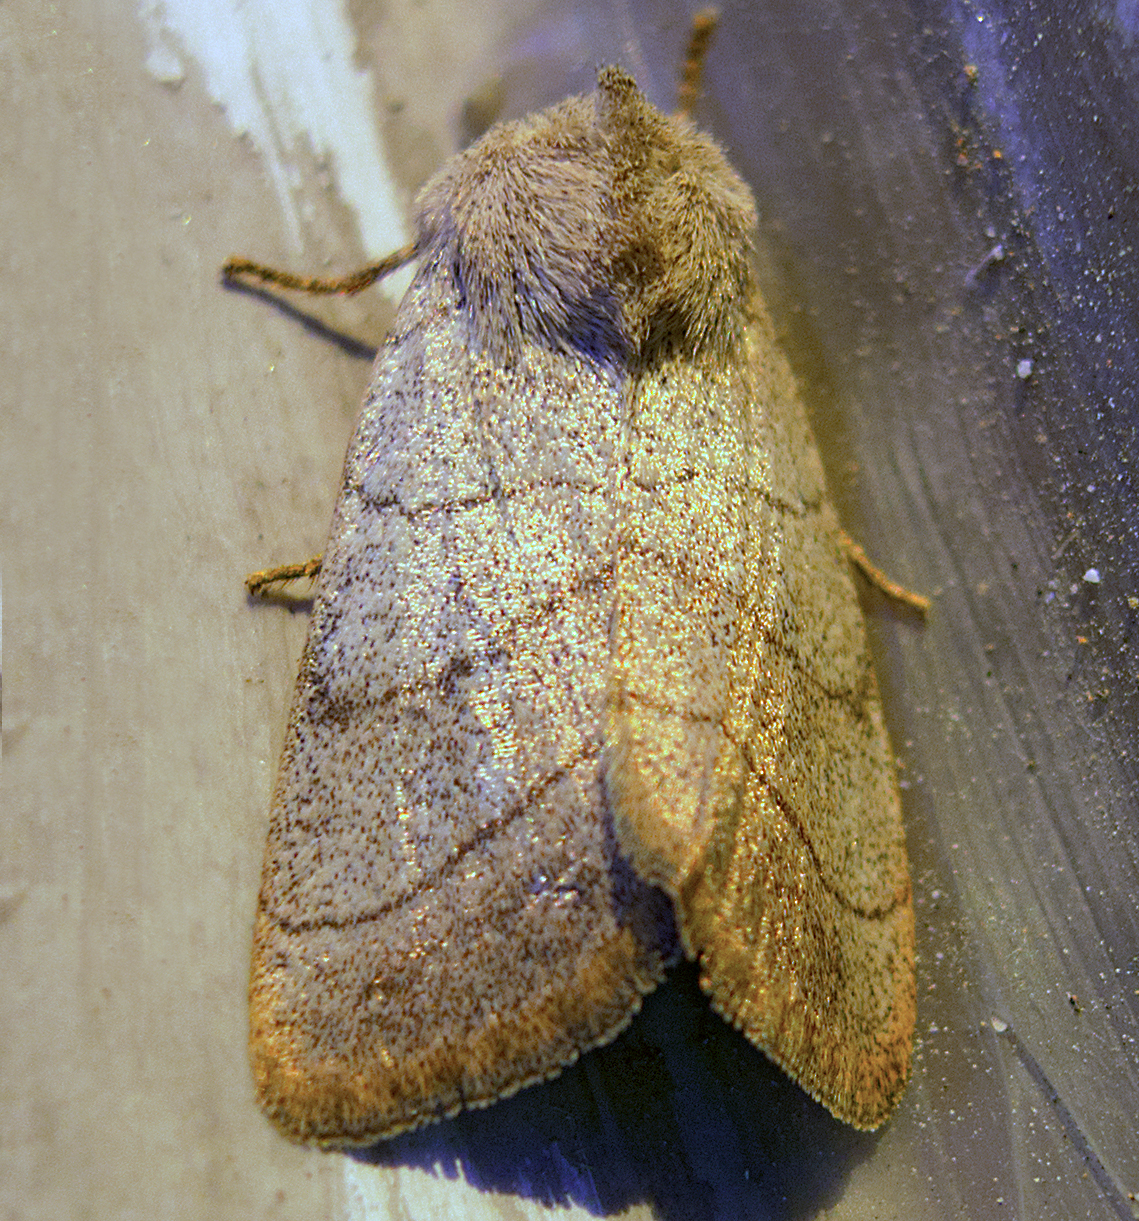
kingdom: Animalia
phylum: Arthropoda
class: Insecta
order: Lepidoptera
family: Noctuidae
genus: Charanyca
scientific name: Charanyca trigrammica
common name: Treble lines
